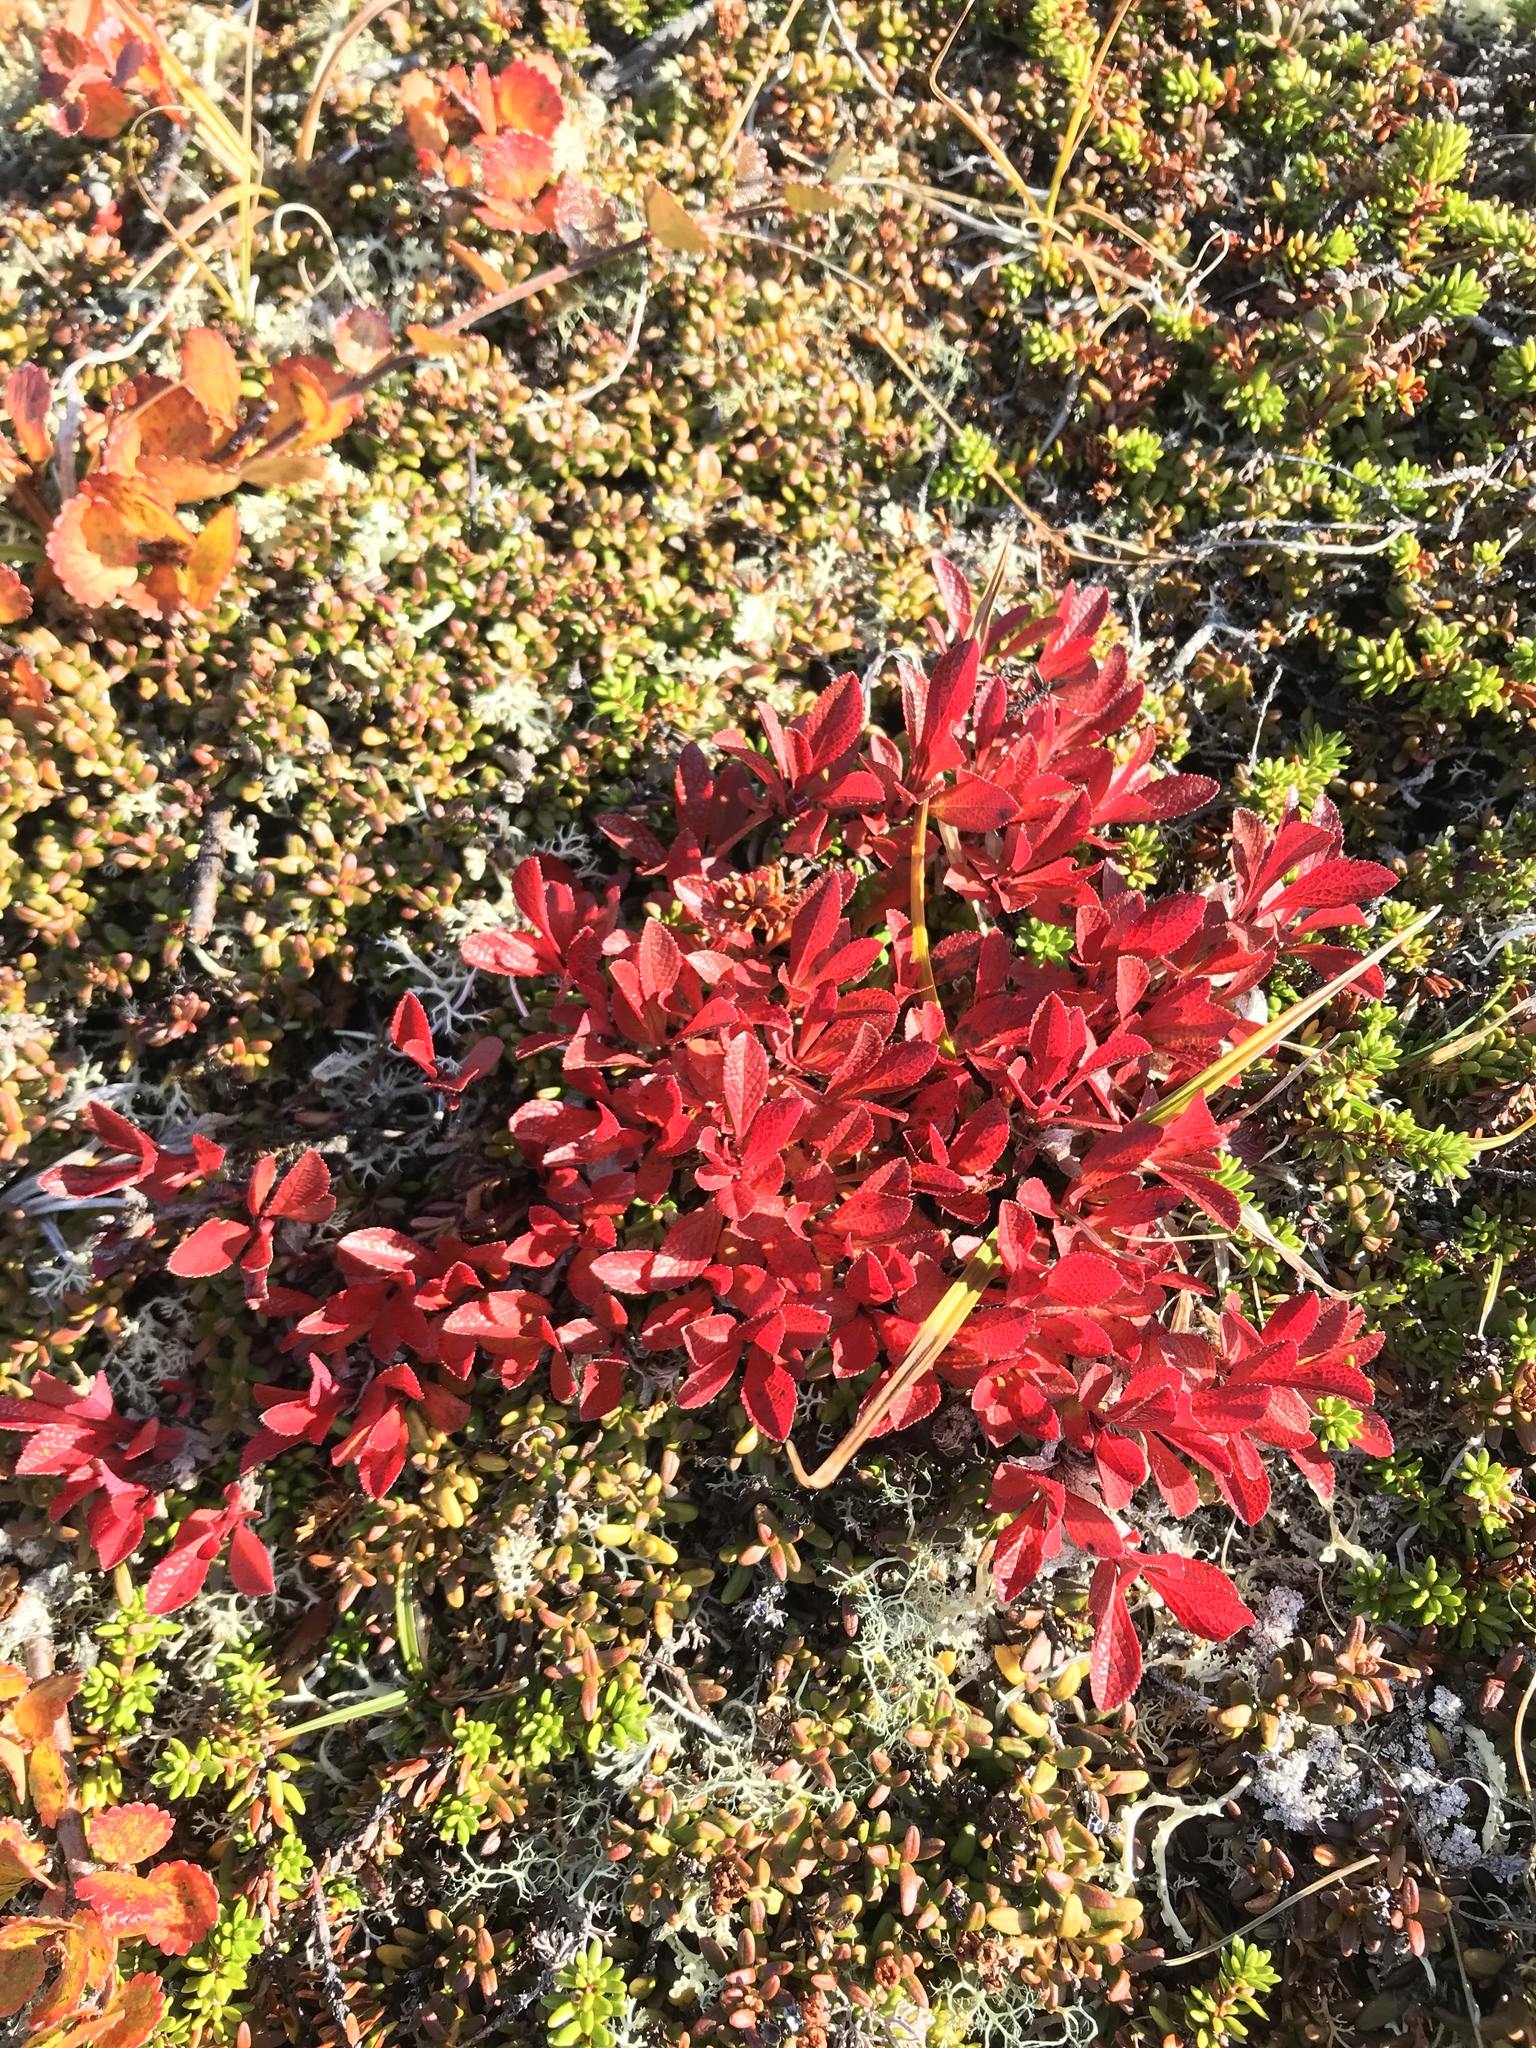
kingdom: Plantae
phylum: Tracheophyta
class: Magnoliopsida
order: Ericales
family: Ericaceae
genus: Arctostaphylos
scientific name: Arctostaphylos alpinus
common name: Alpine bearberry
